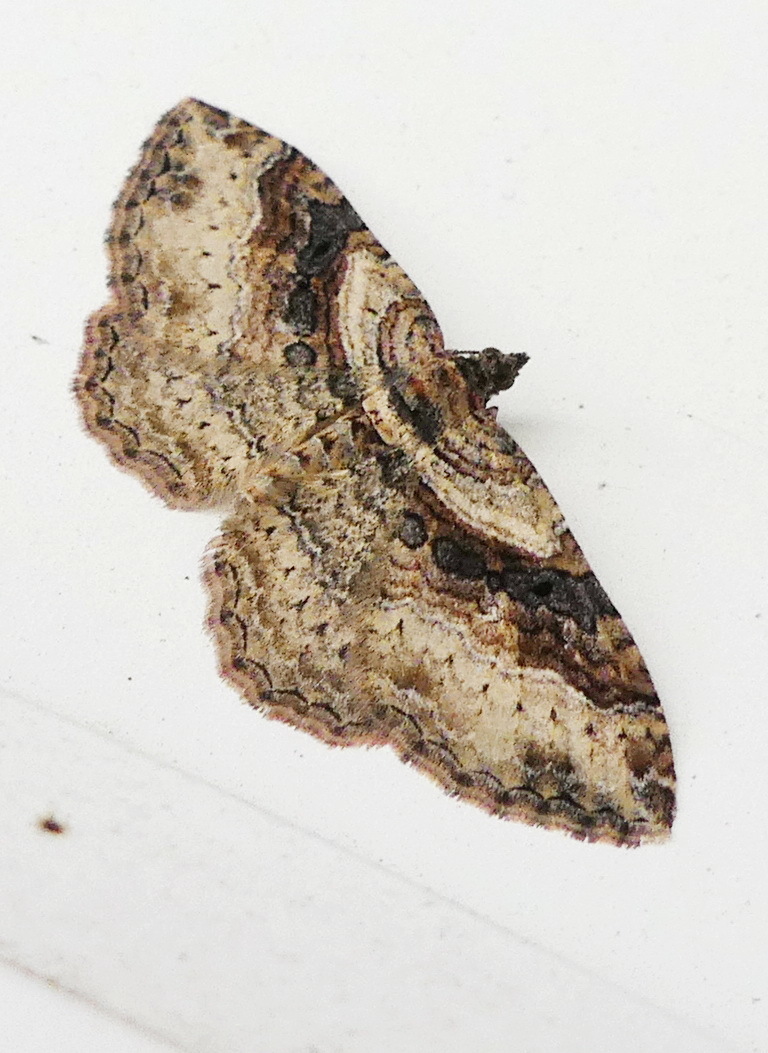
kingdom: Animalia
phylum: Arthropoda
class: Insecta
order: Lepidoptera
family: Geometridae
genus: Costaconvexa
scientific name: Costaconvexa centrostrigaria
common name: Bent-line carpet
